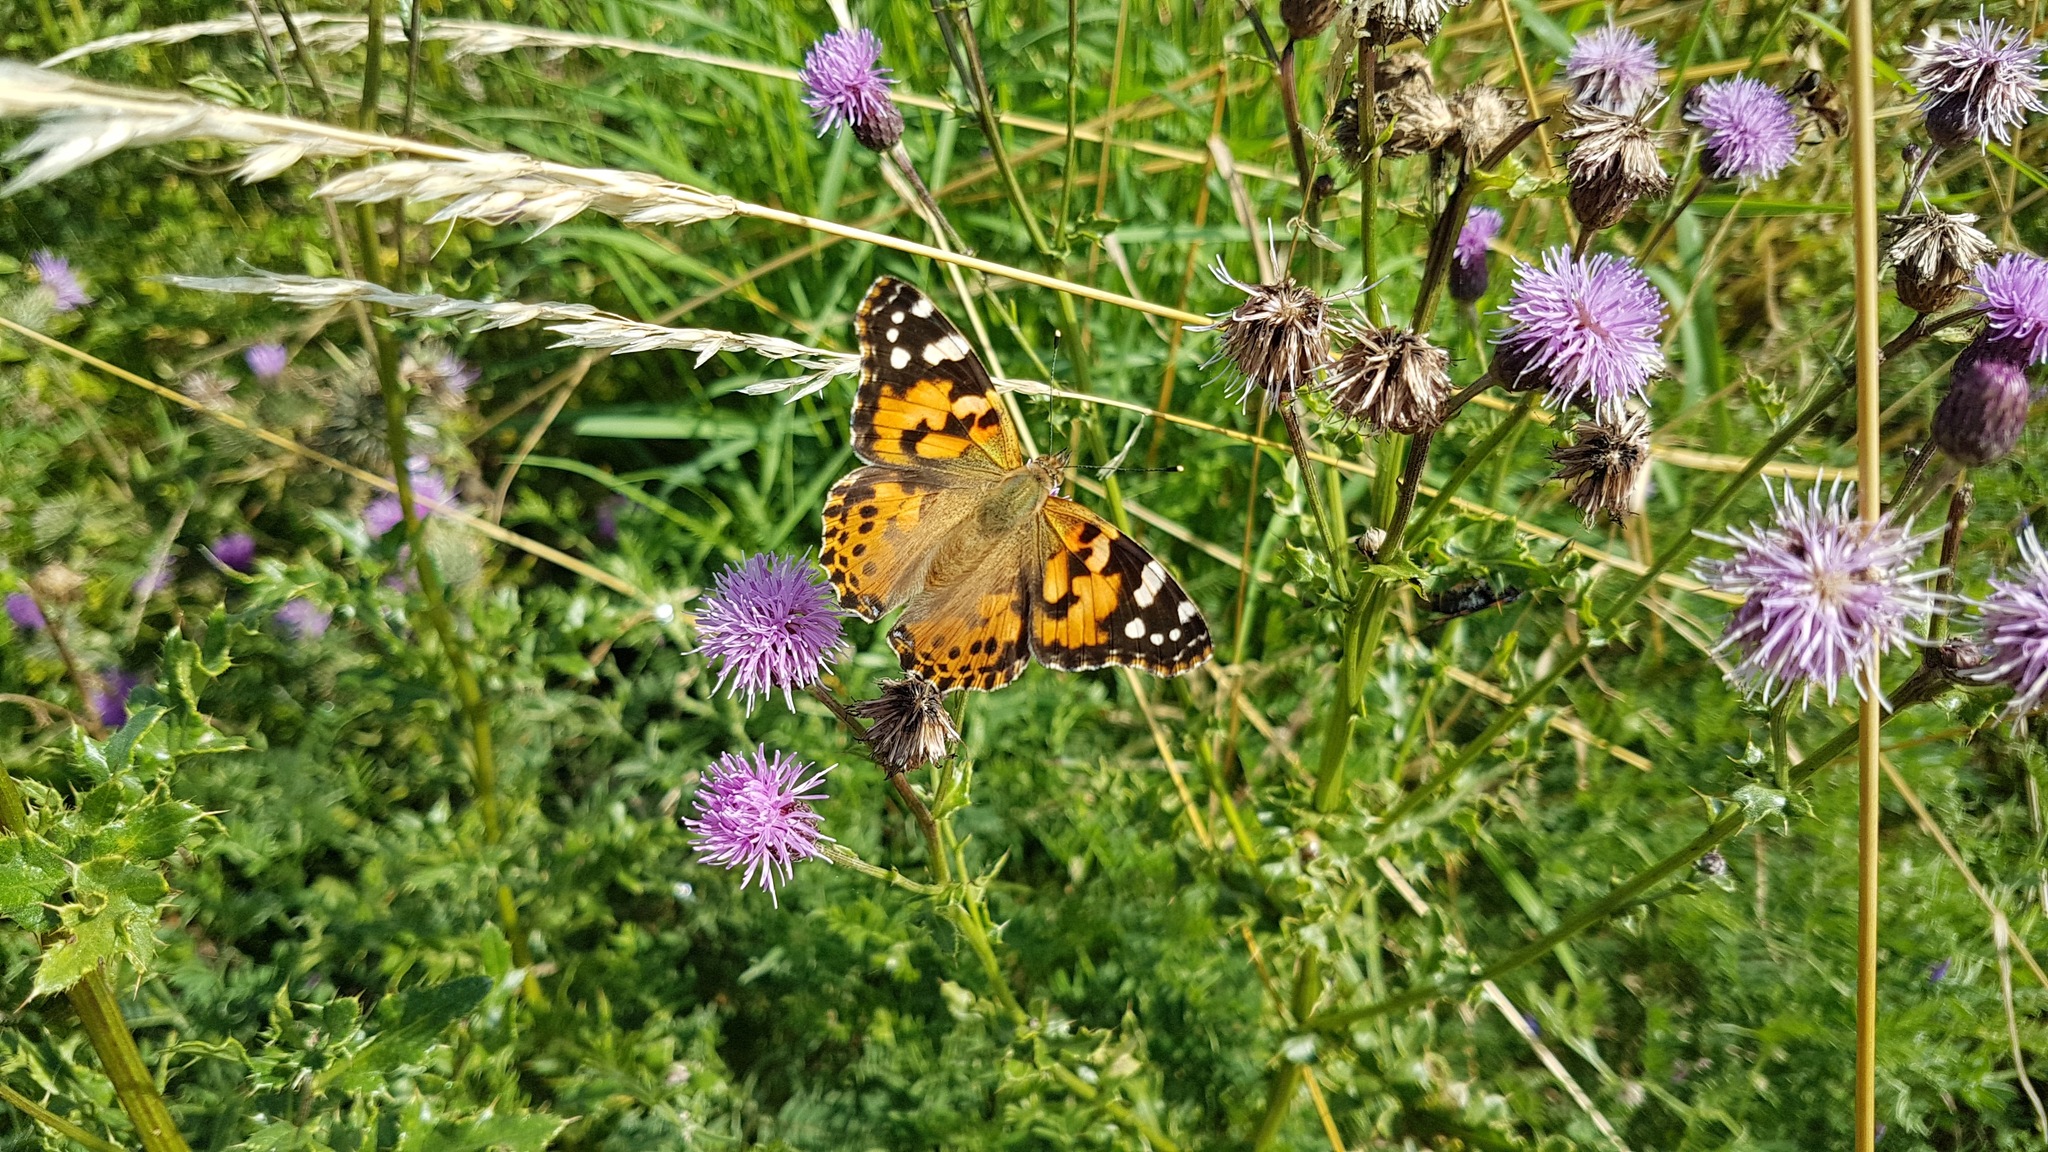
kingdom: Animalia
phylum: Arthropoda
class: Insecta
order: Lepidoptera
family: Nymphalidae
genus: Vanessa
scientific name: Vanessa cardui
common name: Painted lady
